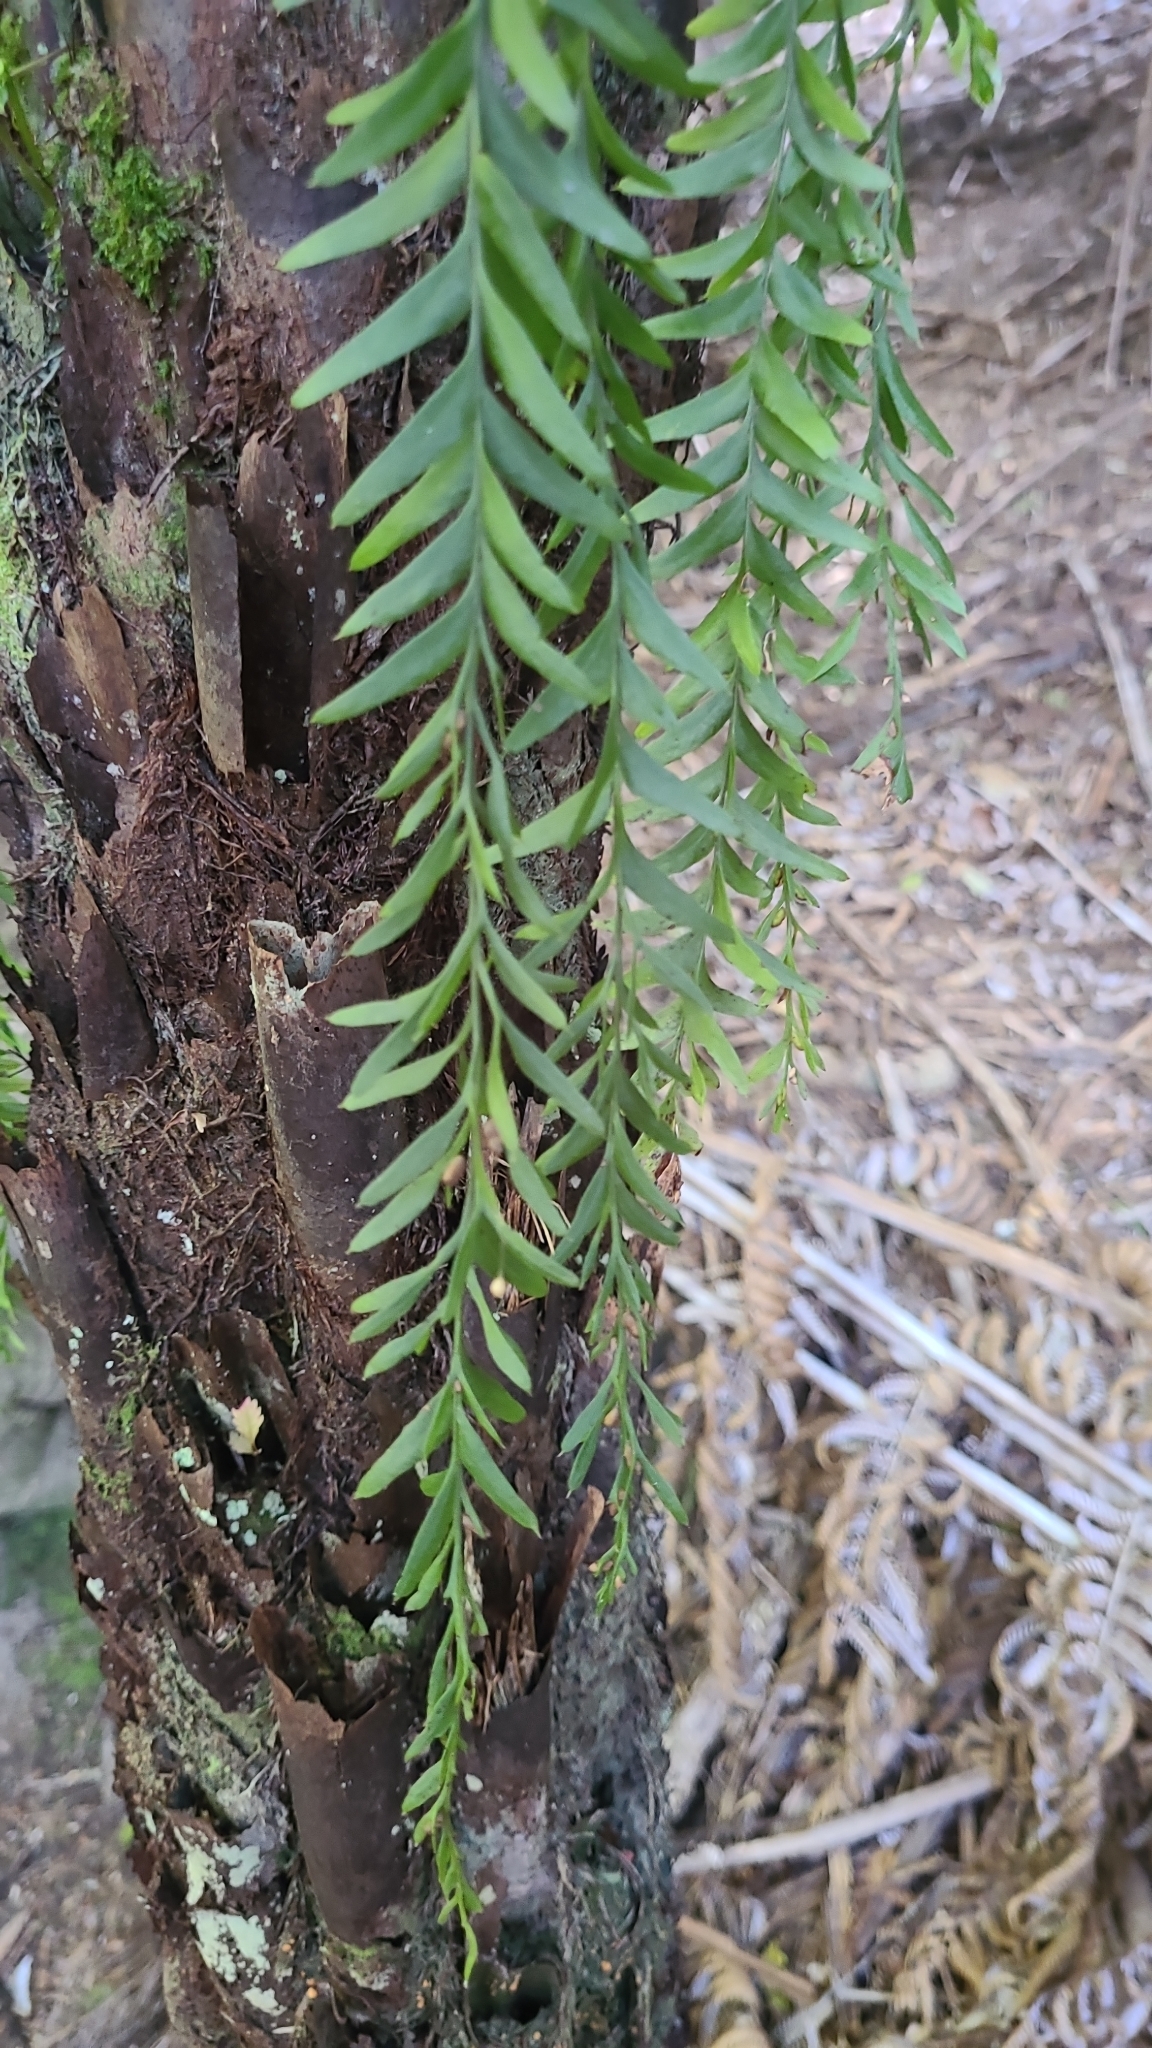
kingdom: Plantae
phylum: Tracheophyta
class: Polypodiopsida
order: Psilotales
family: Psilotaceae
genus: Tmesipteris
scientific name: Tmesipteris elongata
